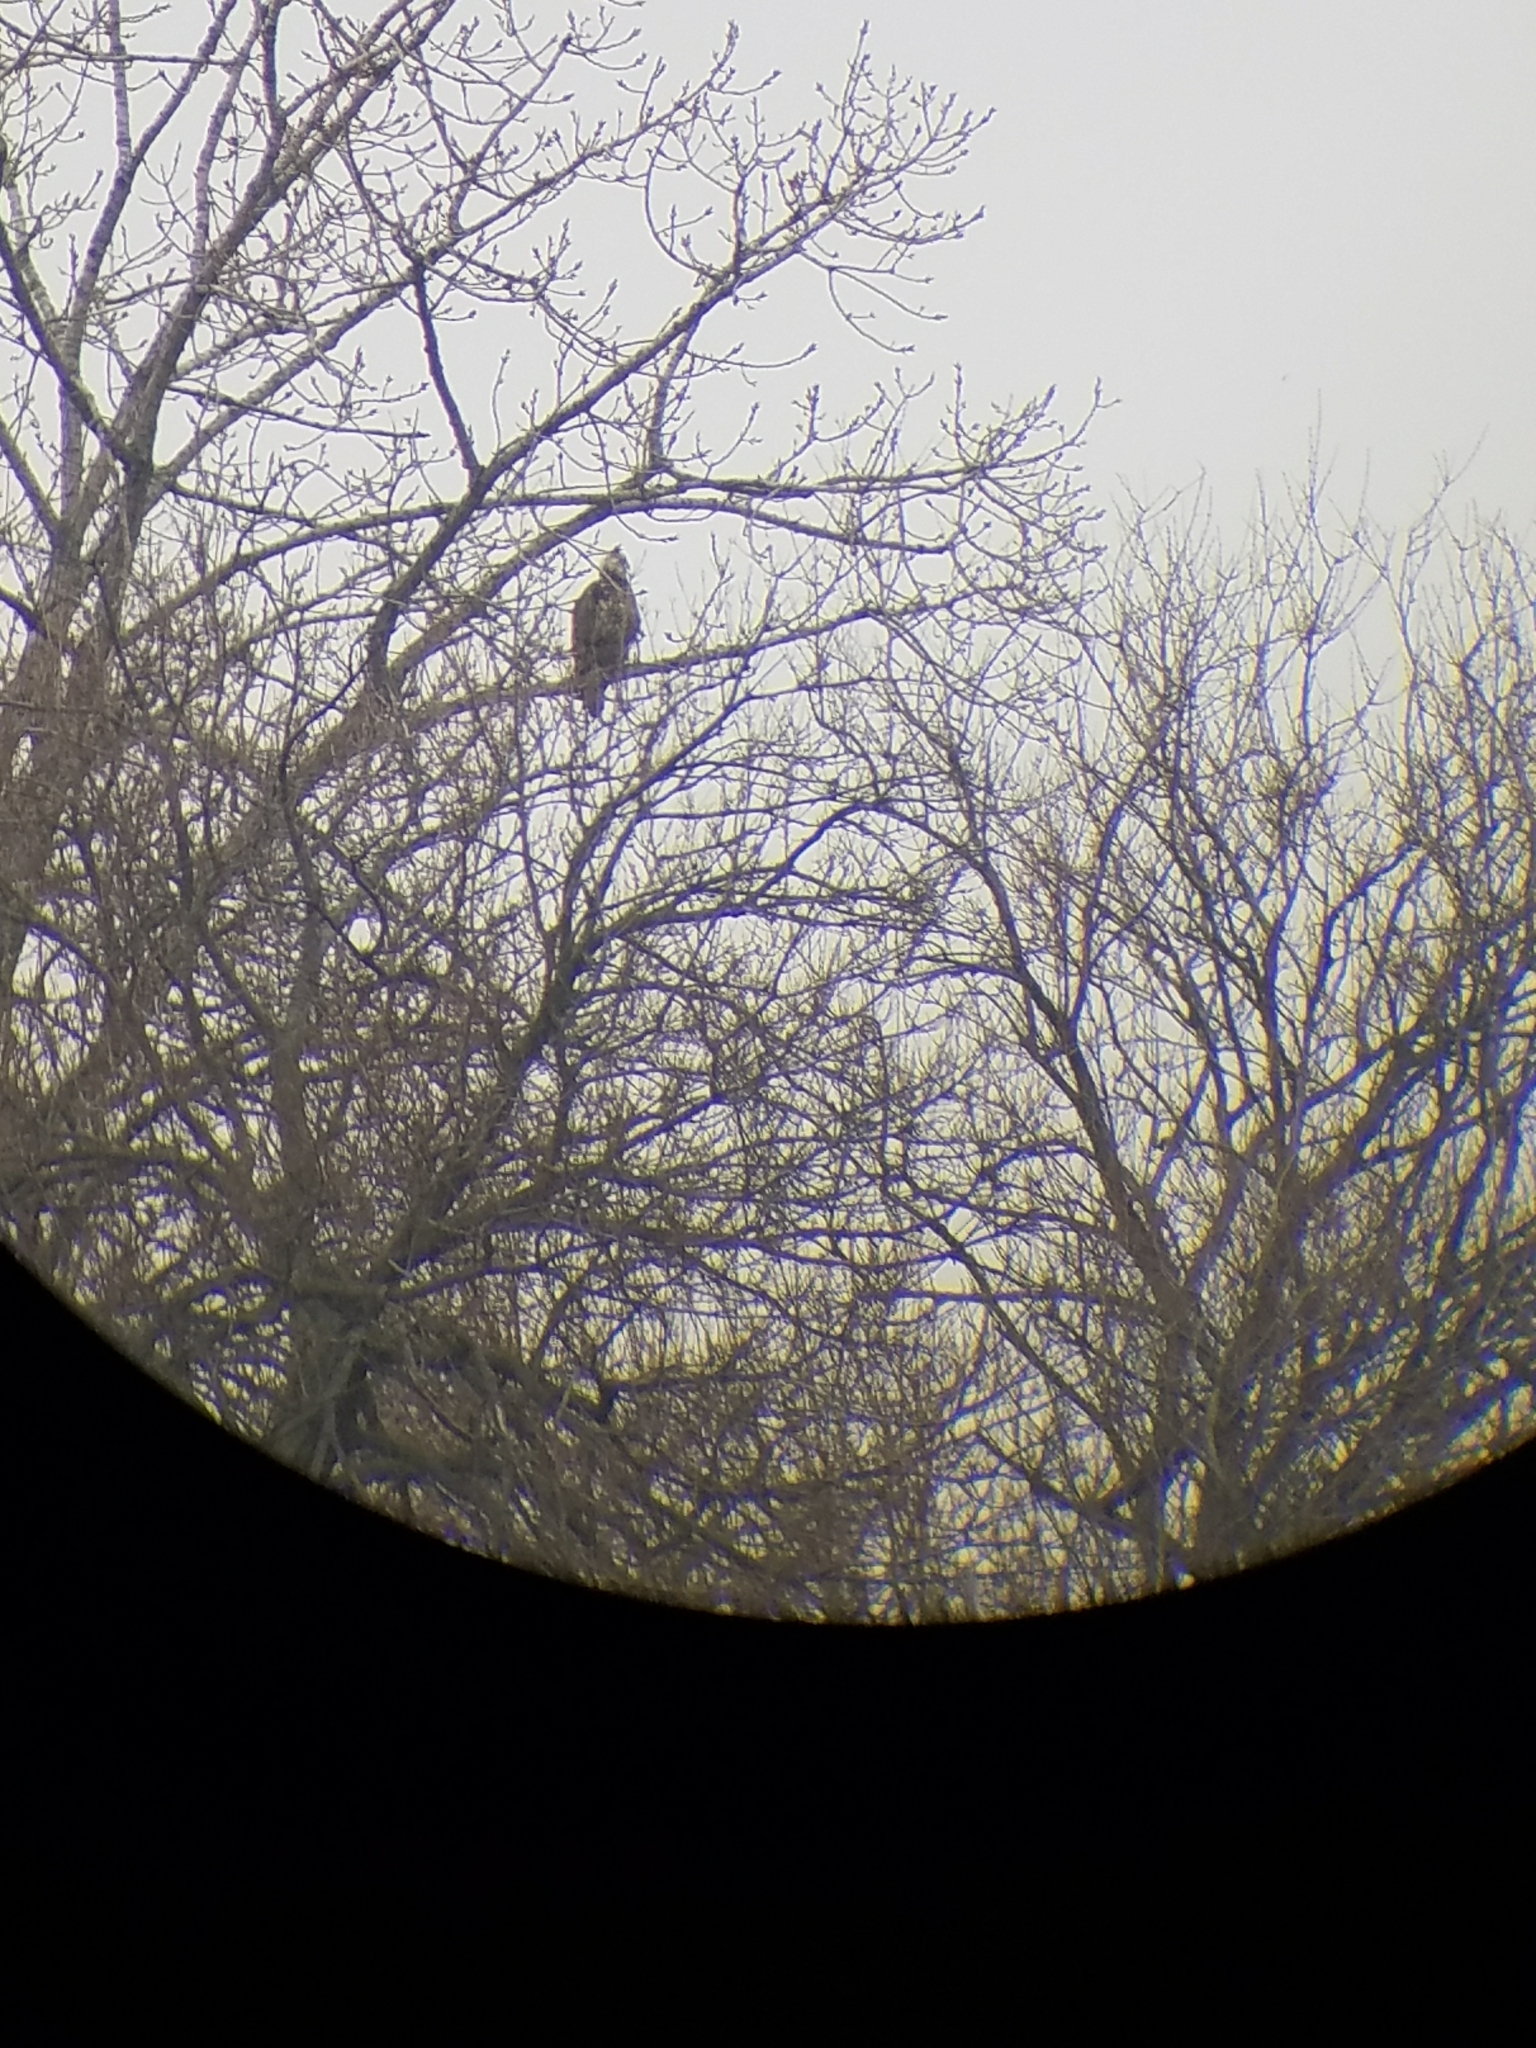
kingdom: Animalia
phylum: Chordata
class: Aves
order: Accipitriformes
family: Accipitridae
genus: Haliaeetus
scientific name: Haliaeetus leucocephalus
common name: Bald eagle
